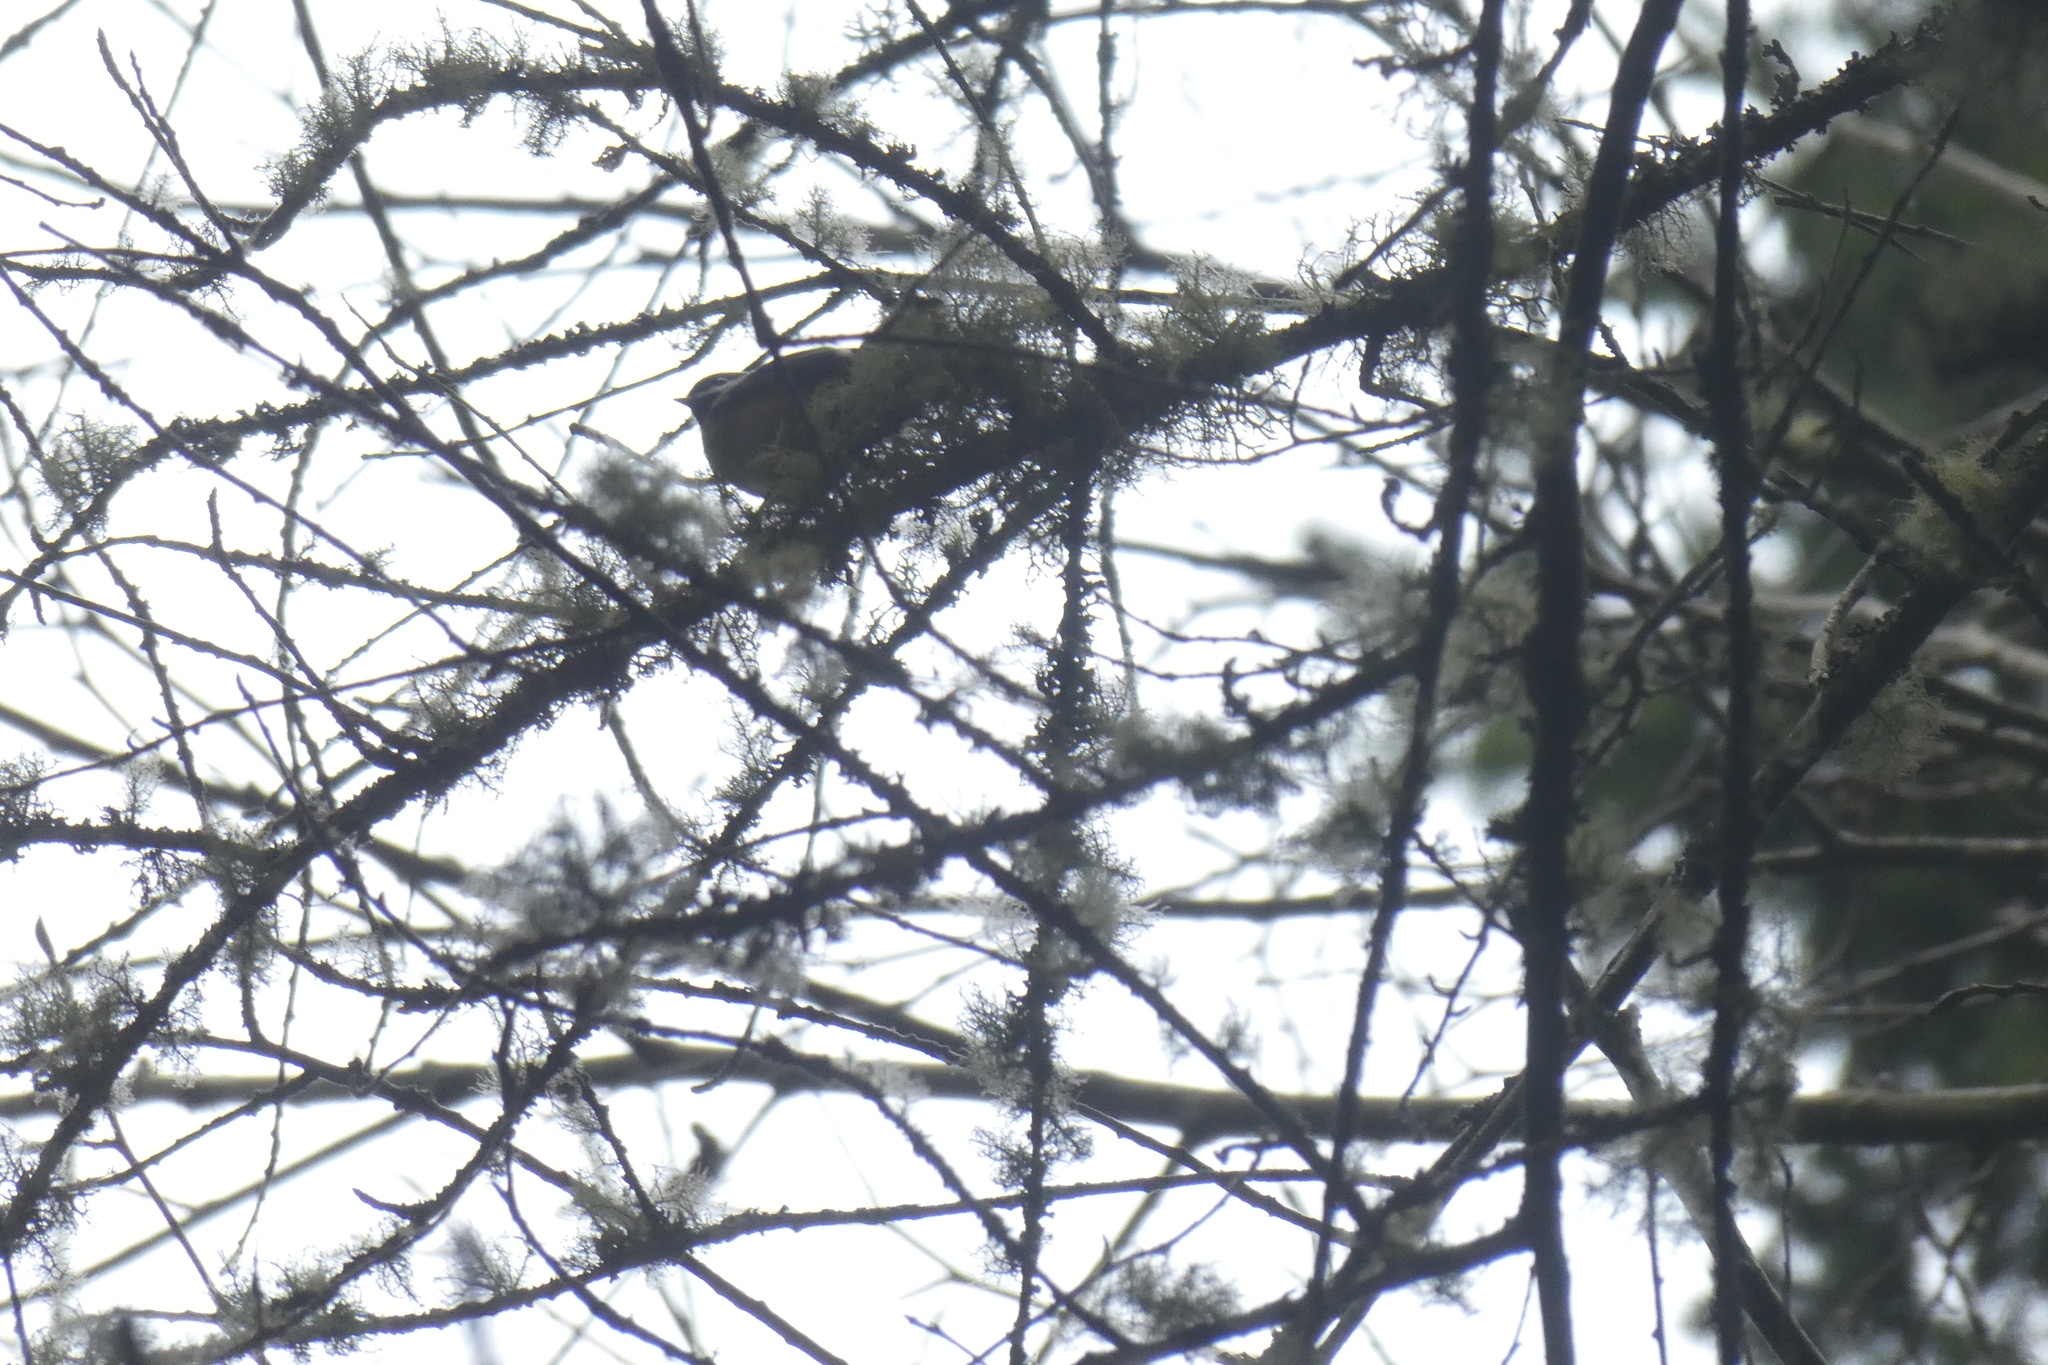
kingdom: Animalia
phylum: Chordata
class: Aves
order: Passeriformes
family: Paridae
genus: Poecile
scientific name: Poecile atricapillus
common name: Black-capped chickadee
